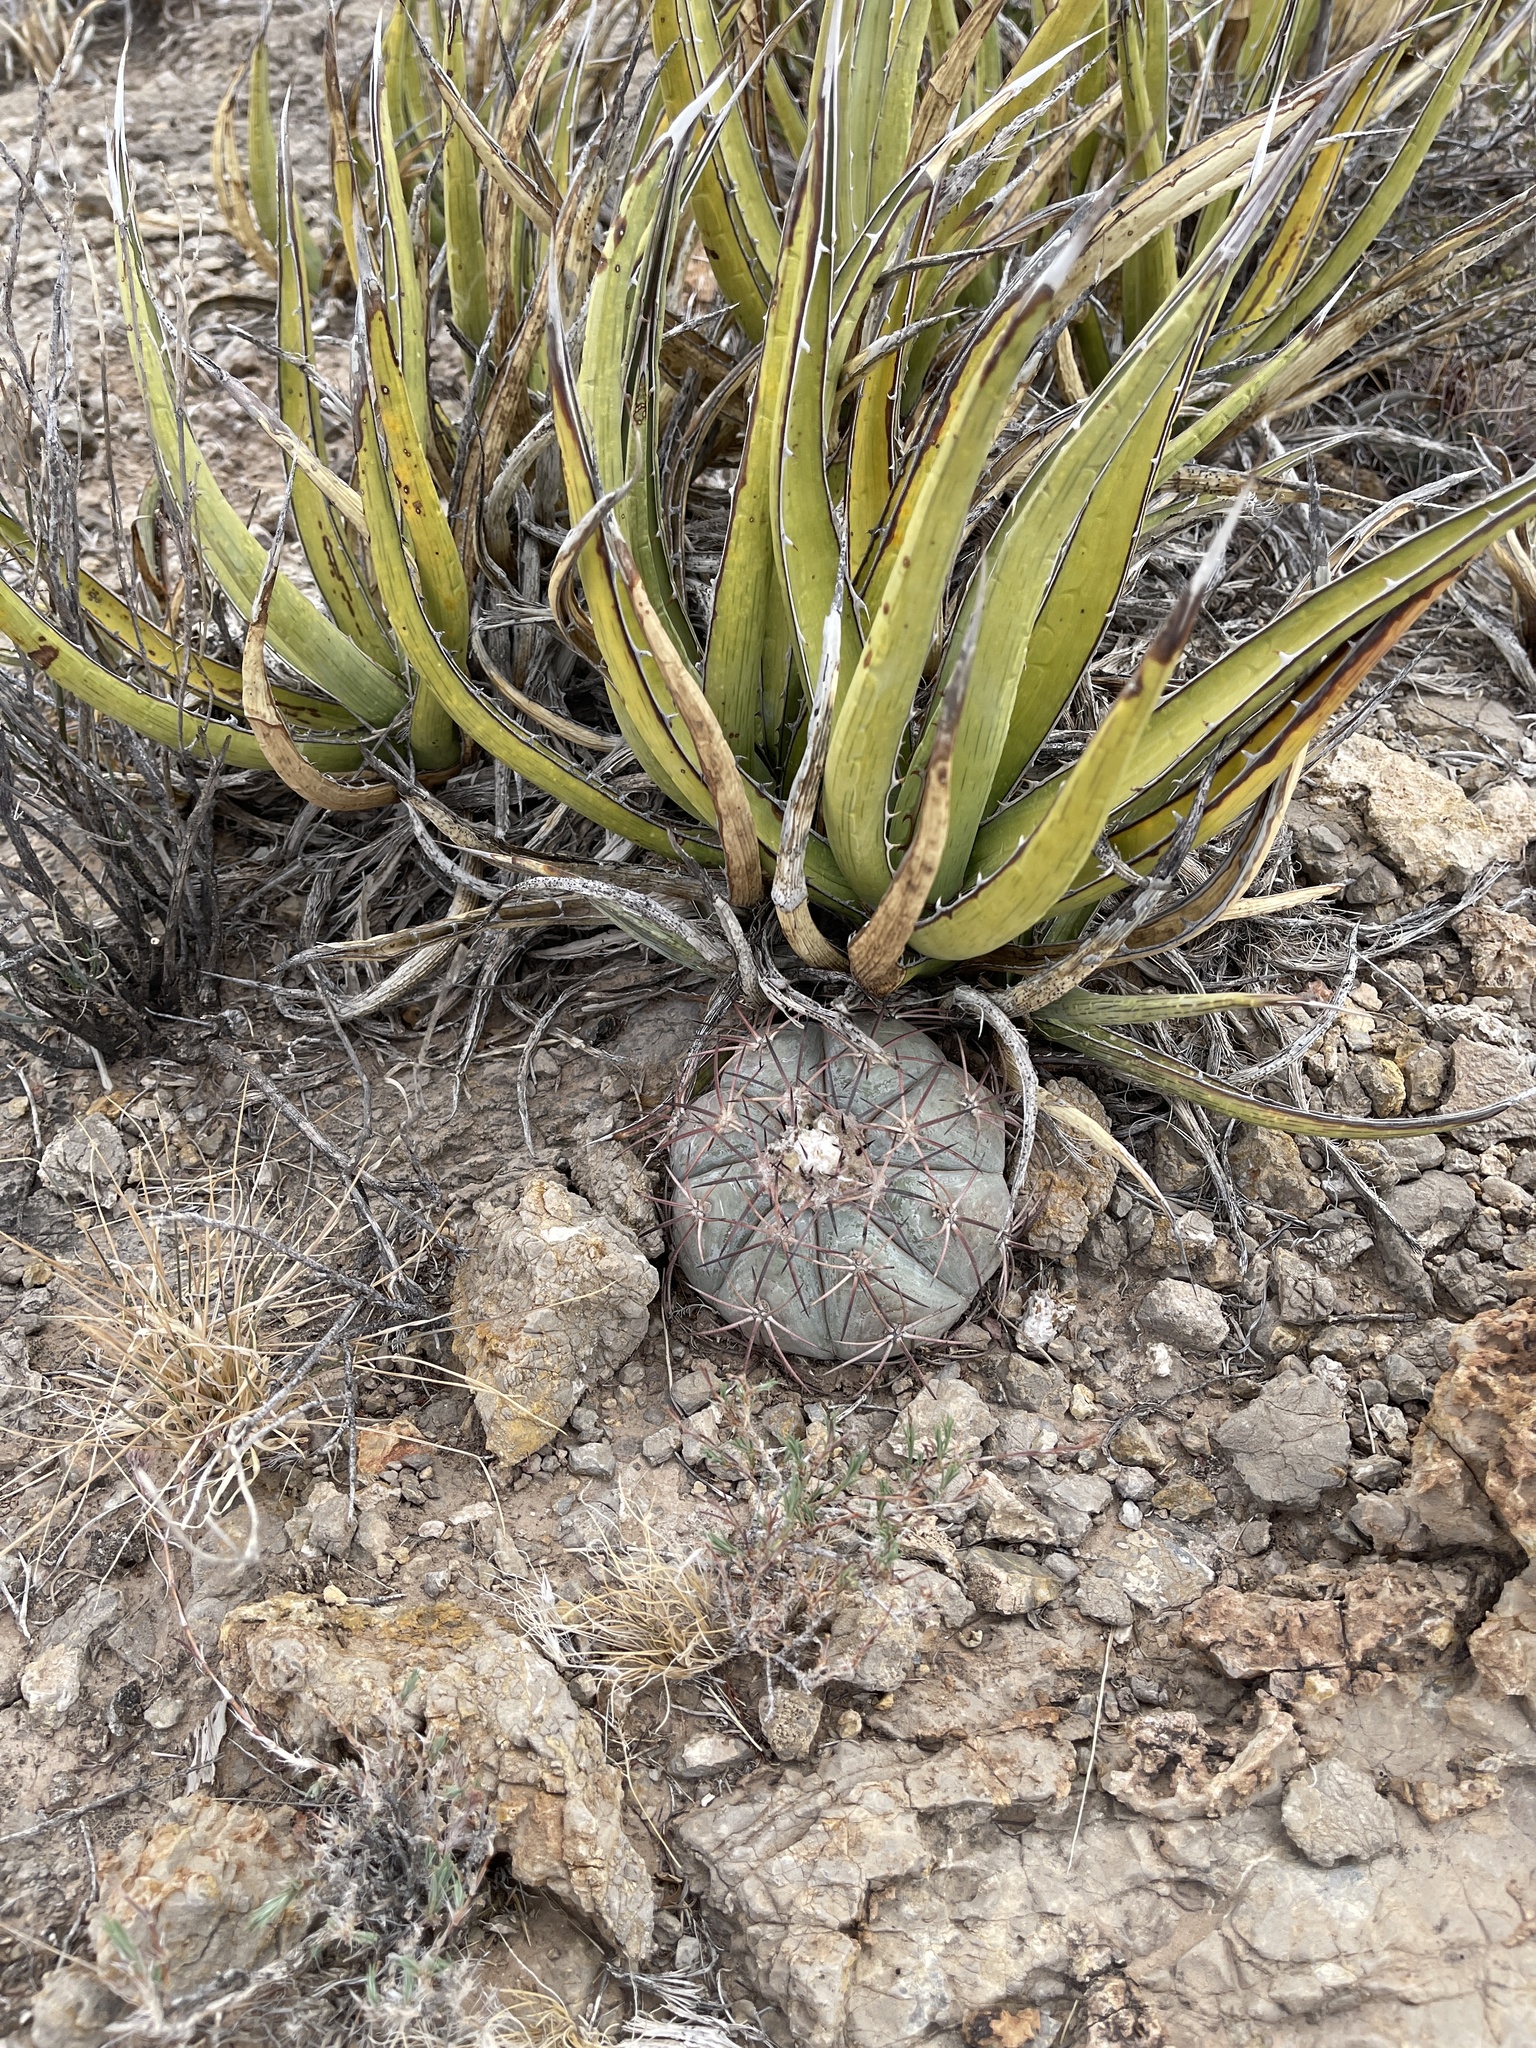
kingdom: Plantae
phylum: Tracheophyta
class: Magnoliopsida
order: Caryophyllales
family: Cactaceae
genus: Echinocactus
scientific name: Echinocactus horizonthalonius
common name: Devilshead
